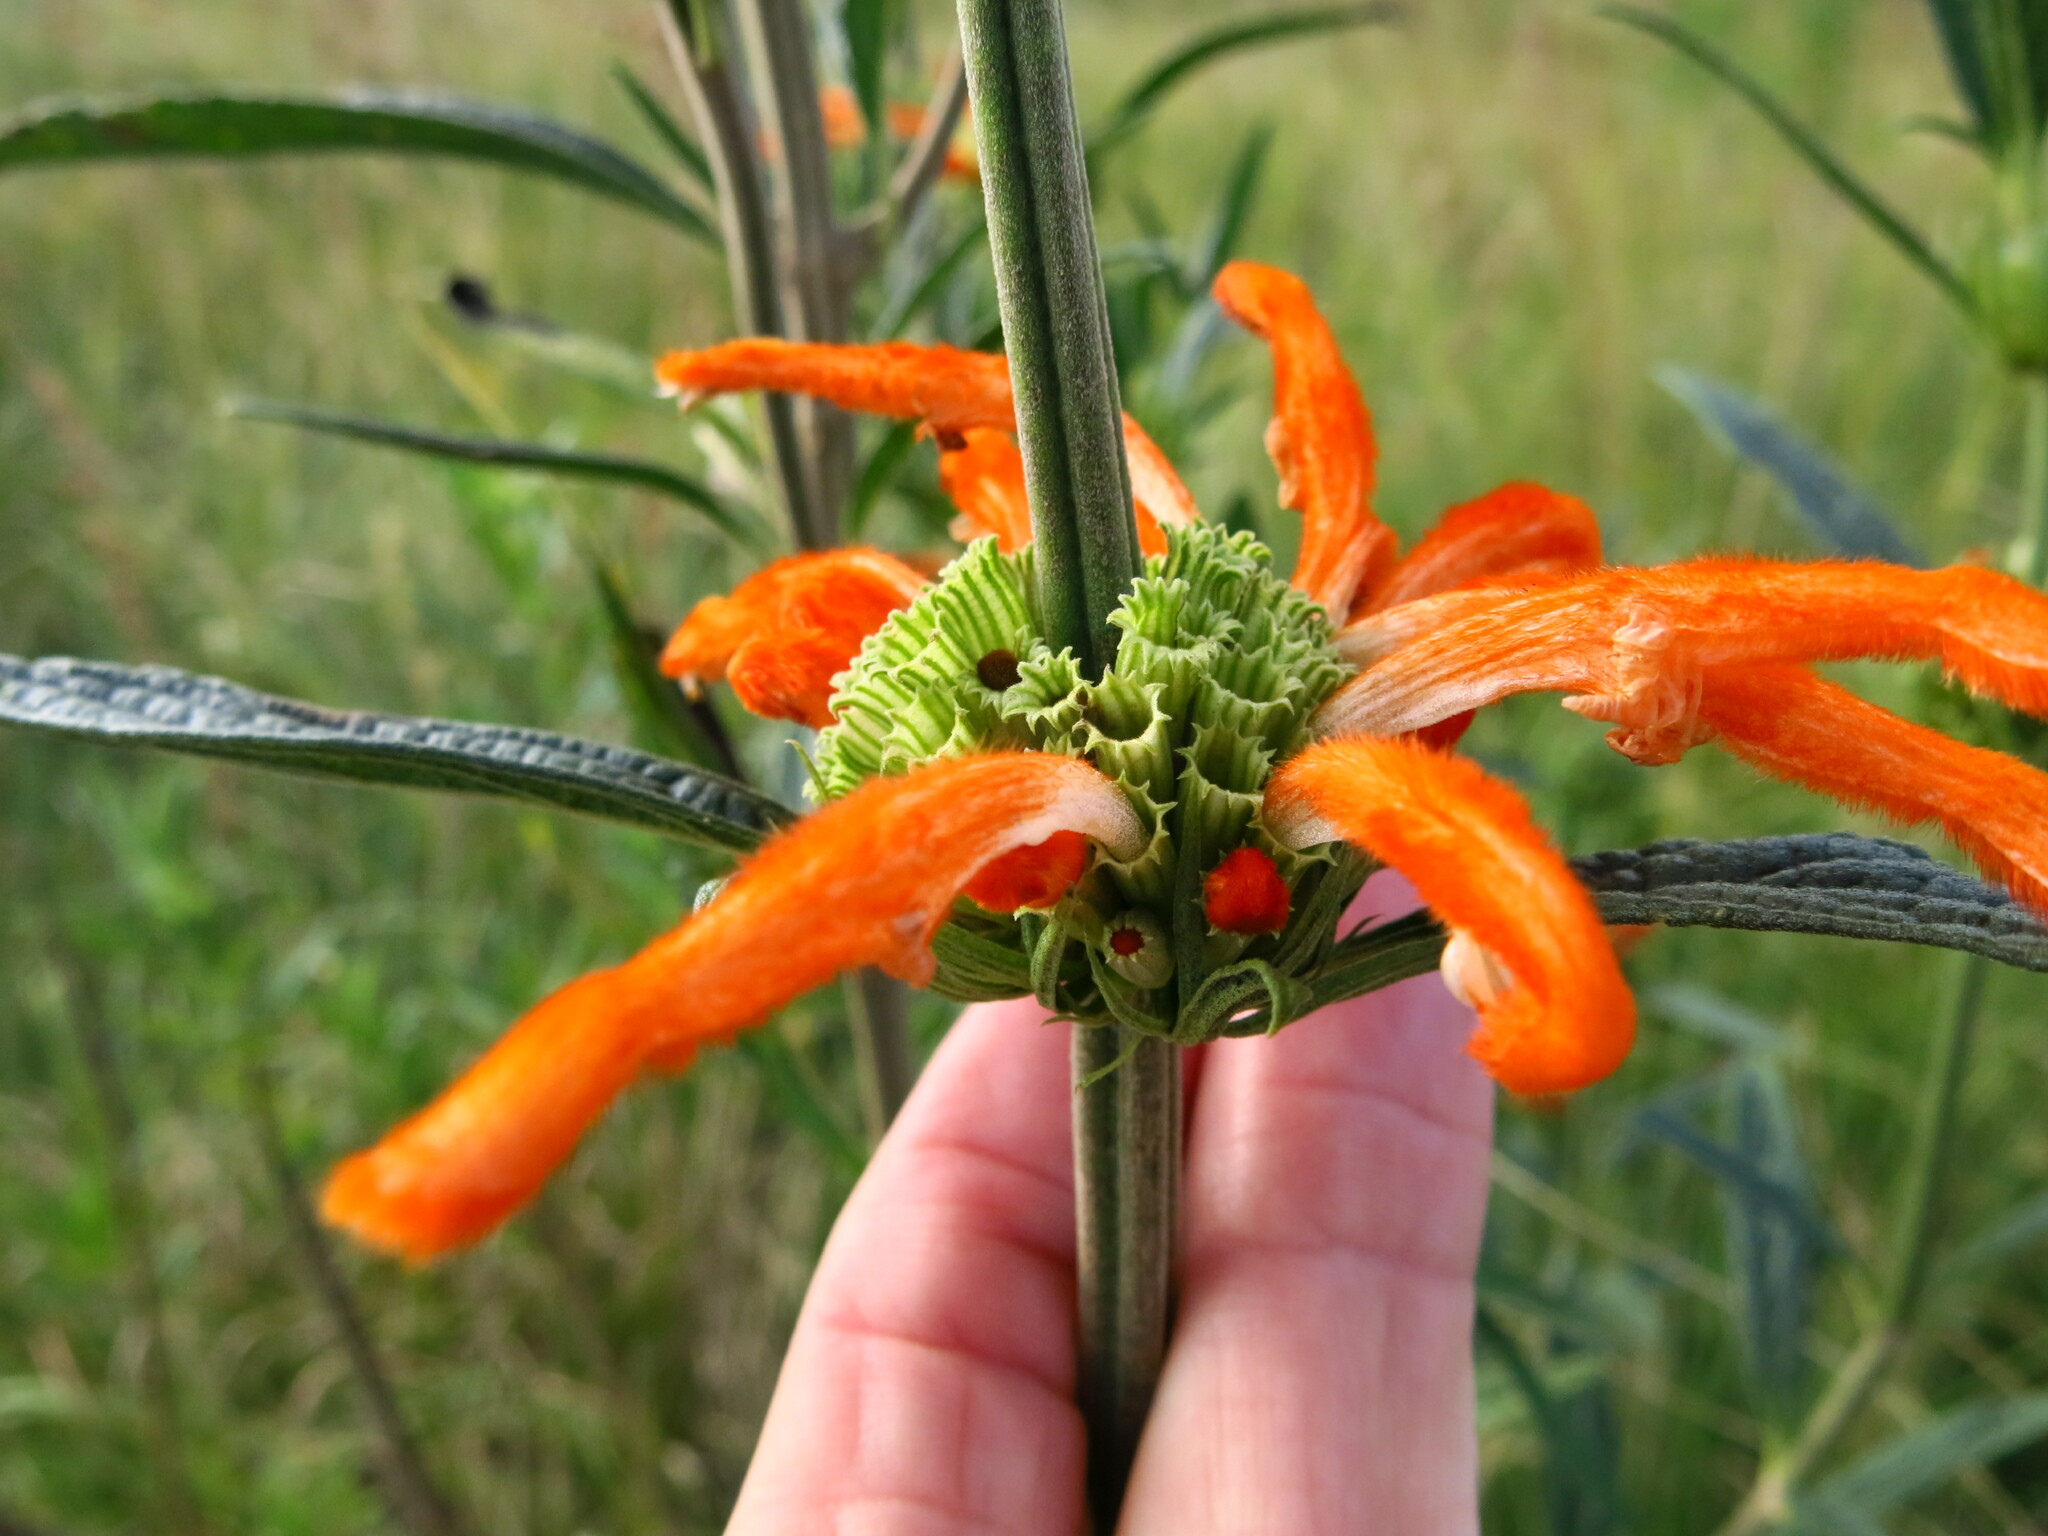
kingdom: Plantae
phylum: Tracheophyta
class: Magnoliopsida
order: Lamiales
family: Lamiaceae
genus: Leonotis
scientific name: Leonotis leonurus
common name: Lion's ear
